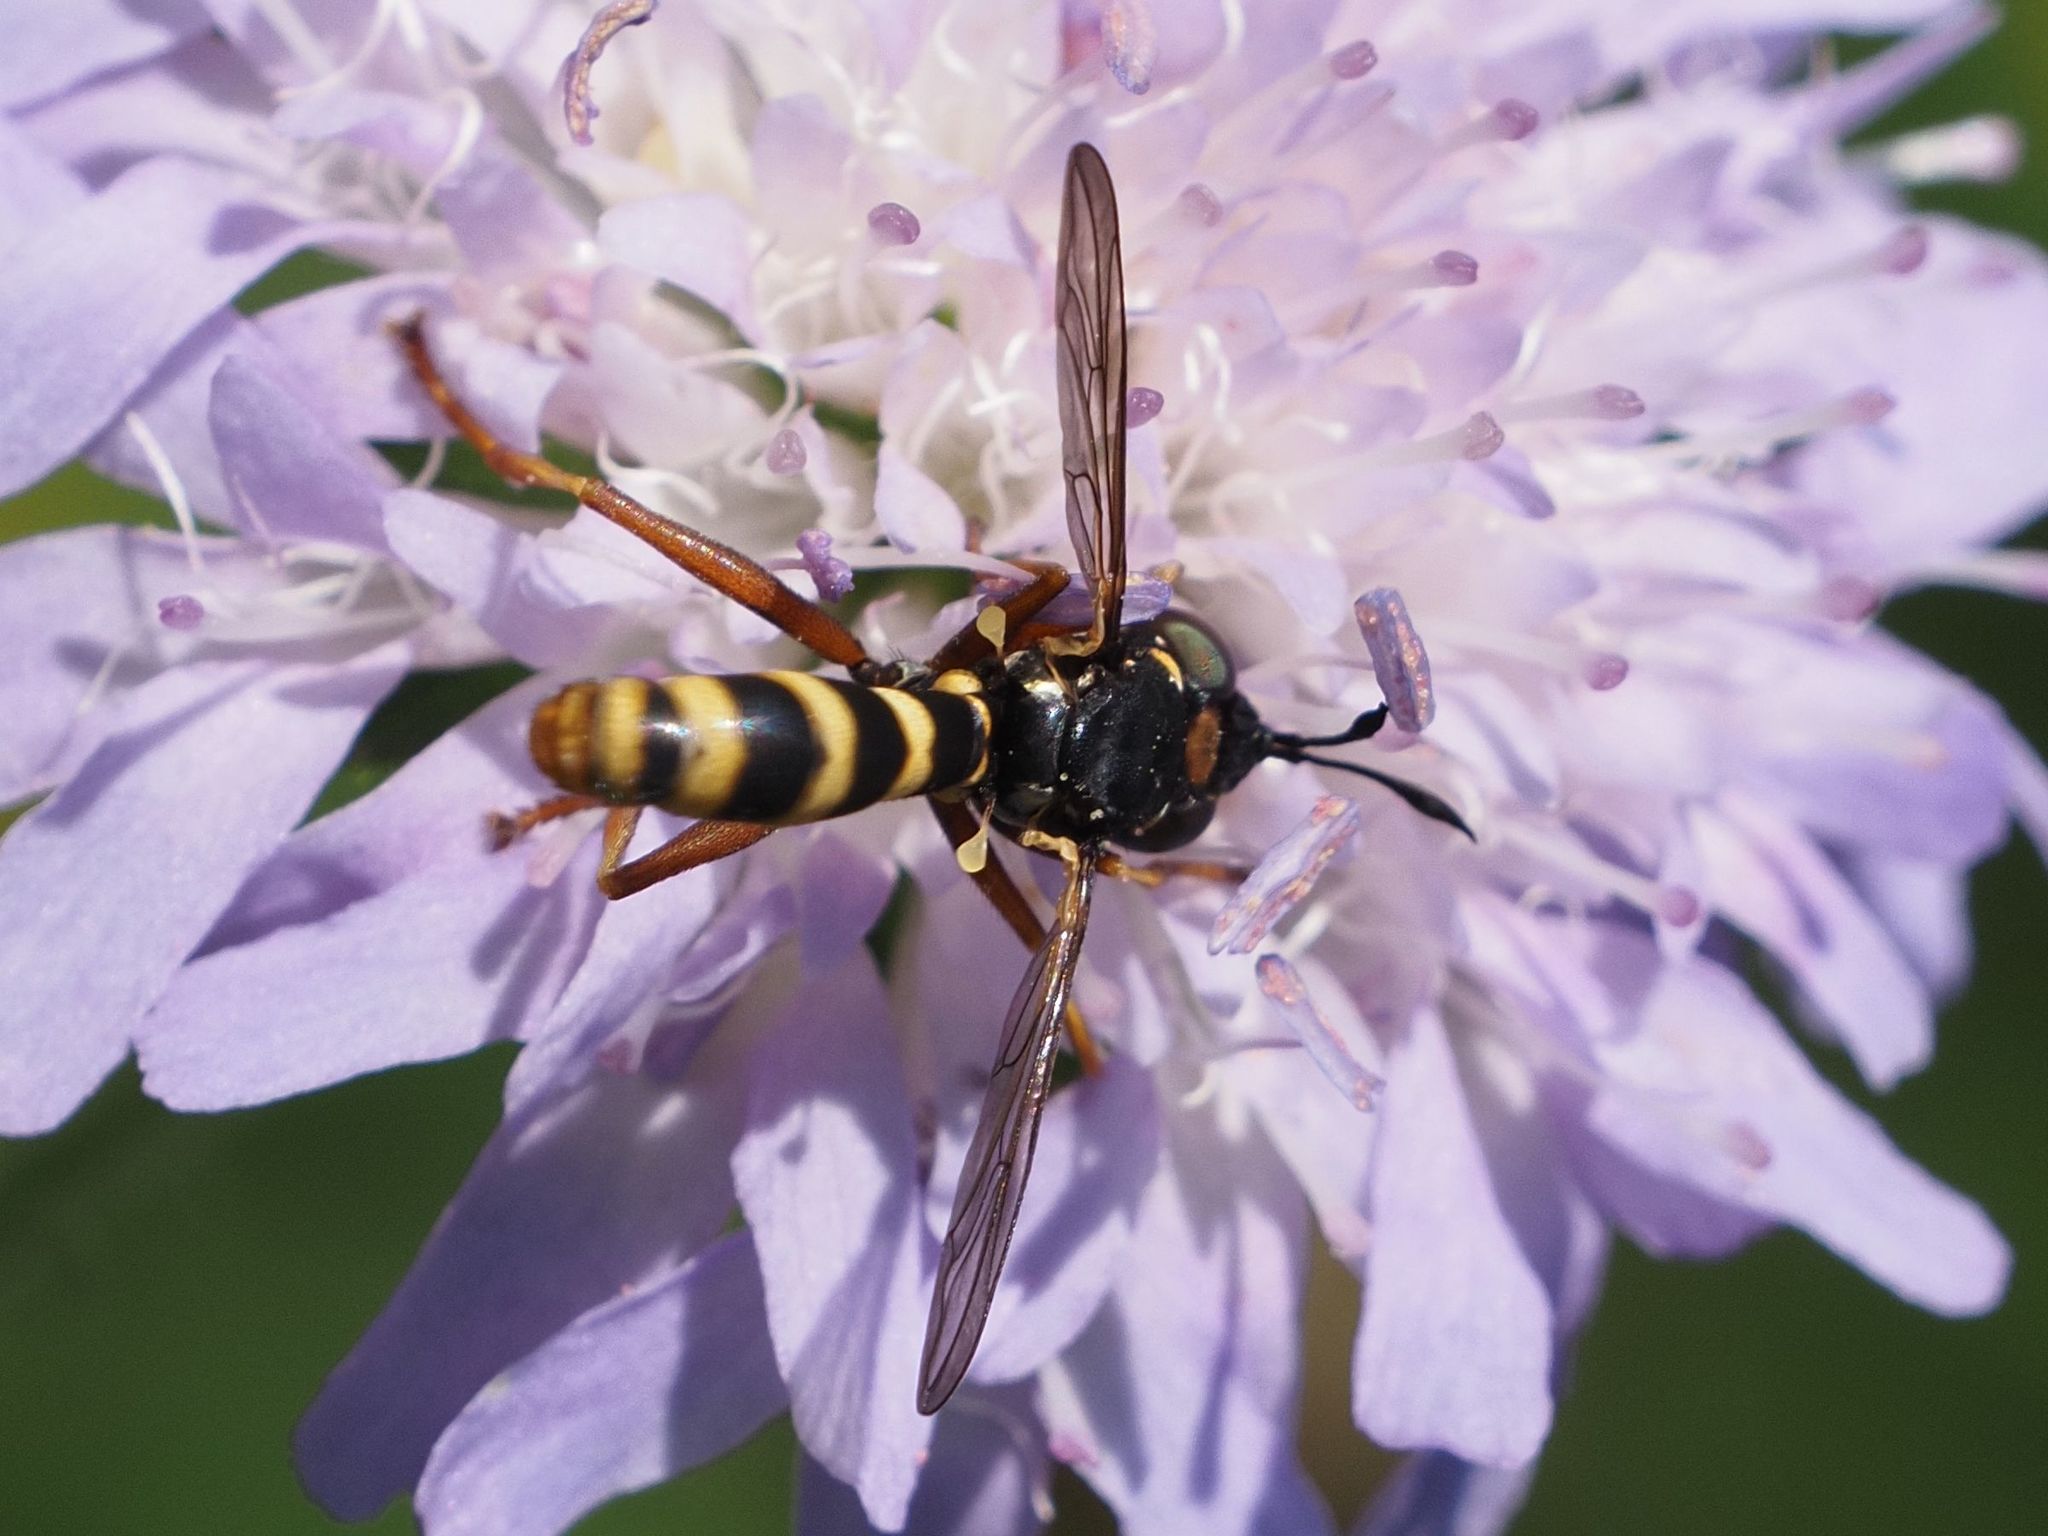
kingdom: Animalia
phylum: Arthropoda
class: Insecta
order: Diptera
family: Conopidae
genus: Conops
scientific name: Conops quadrifasciatus
